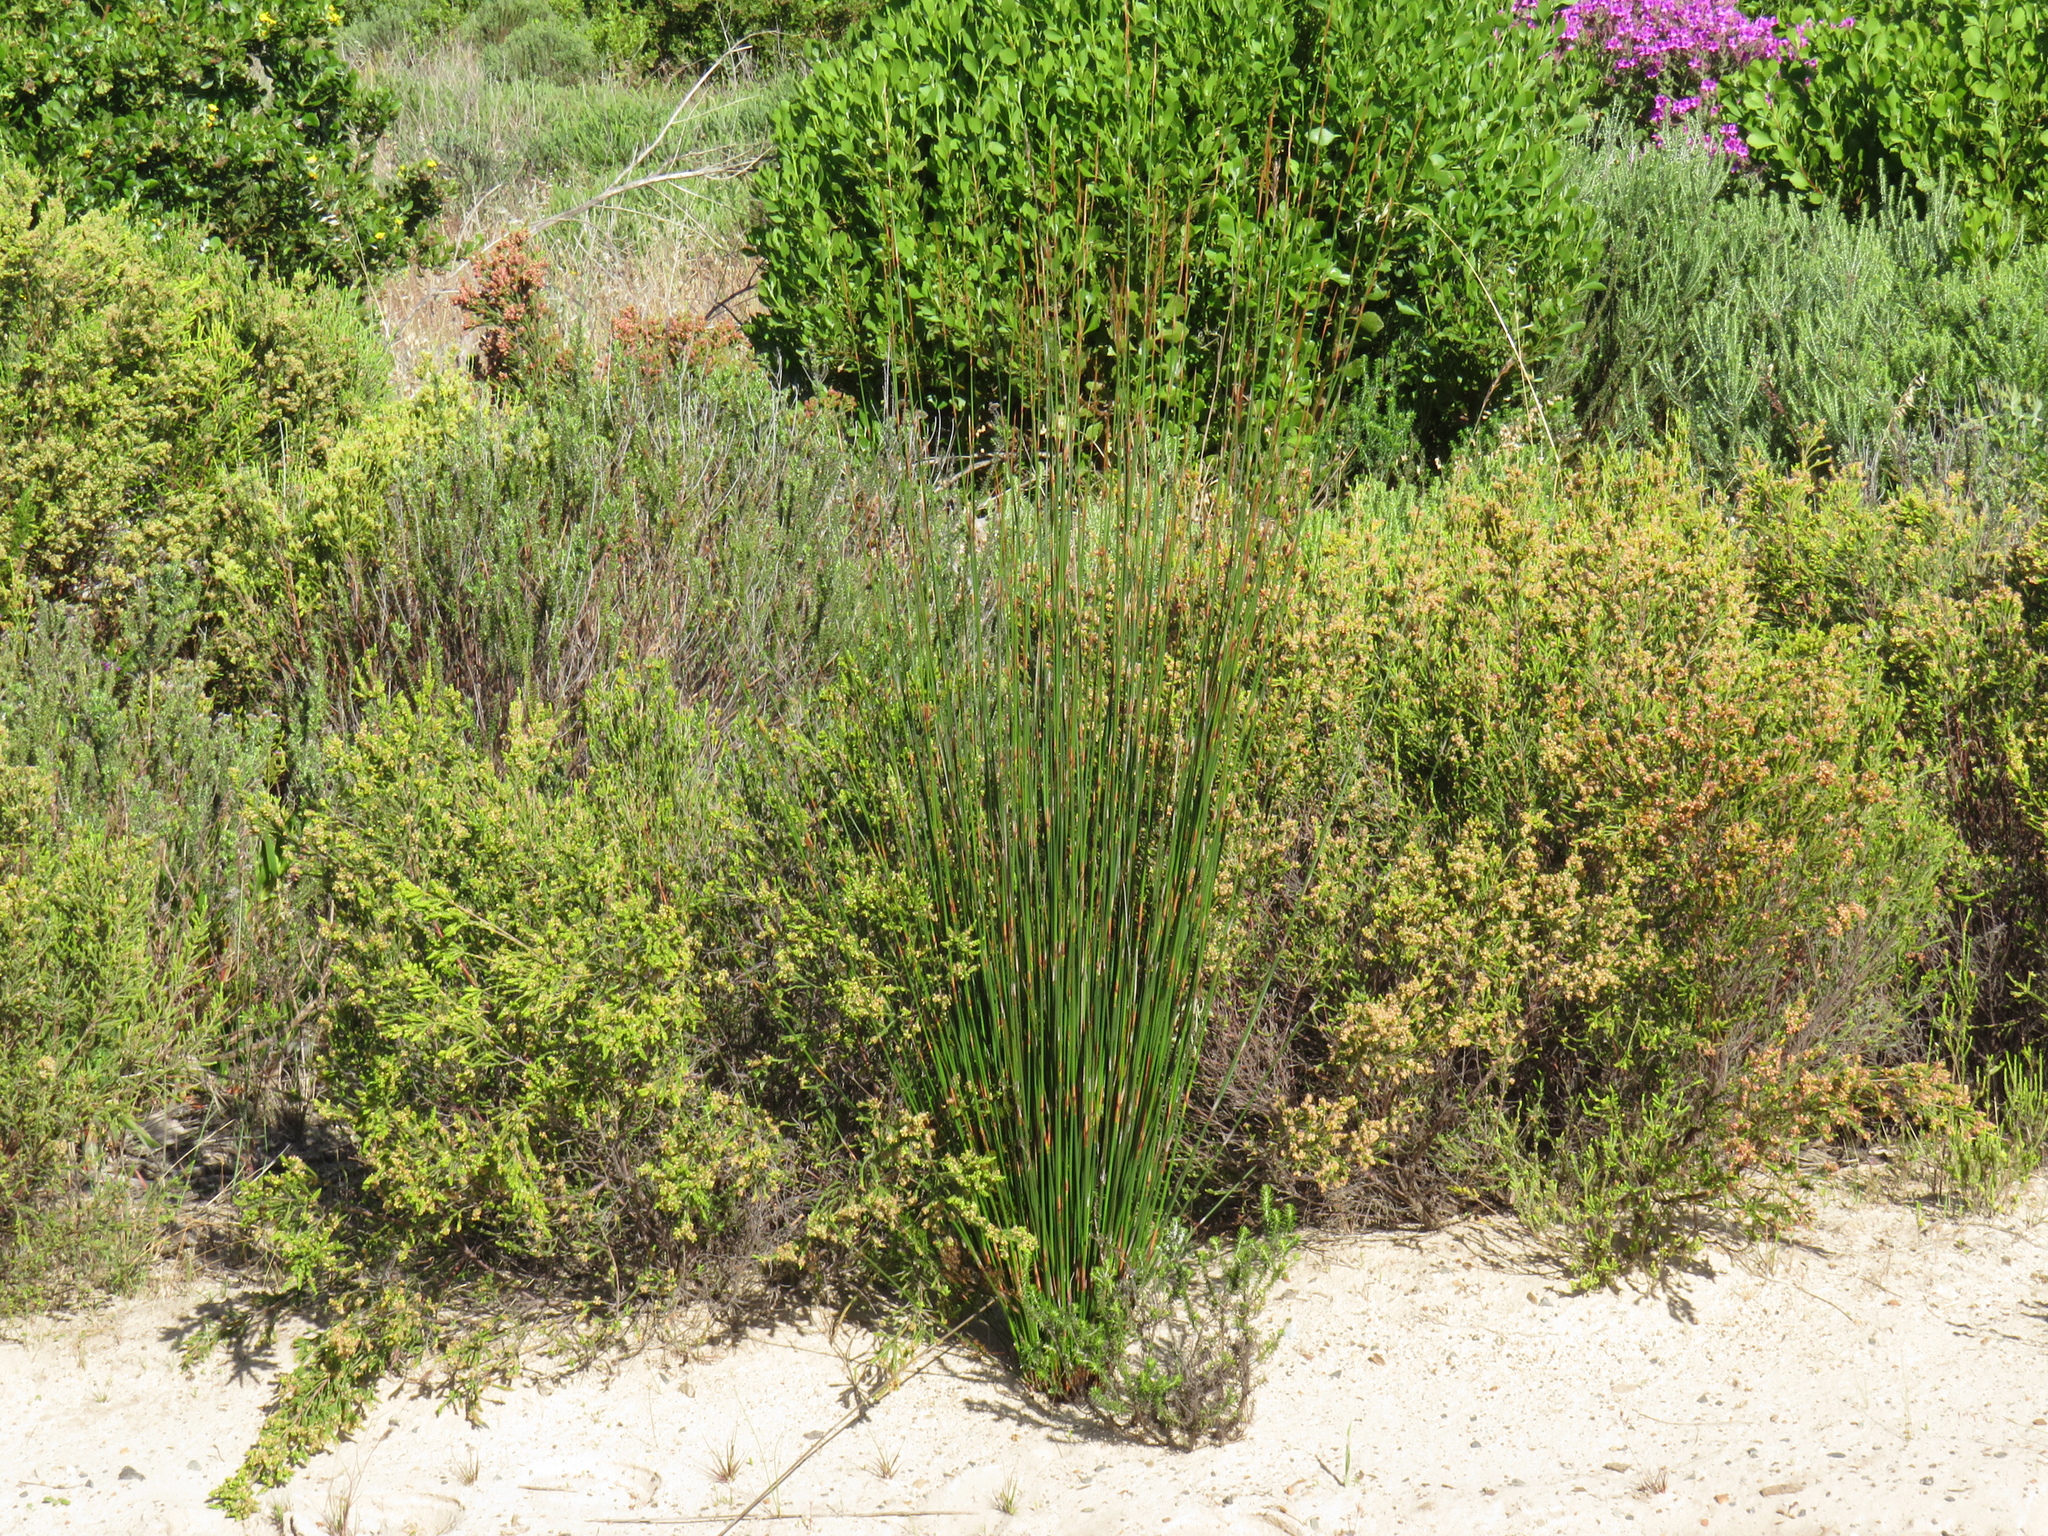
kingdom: Plantae
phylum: Tracheophyta
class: Liliopsida
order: Poales
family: Restionaceae
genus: Thamnochortus
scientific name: Thamnochortus insignis
